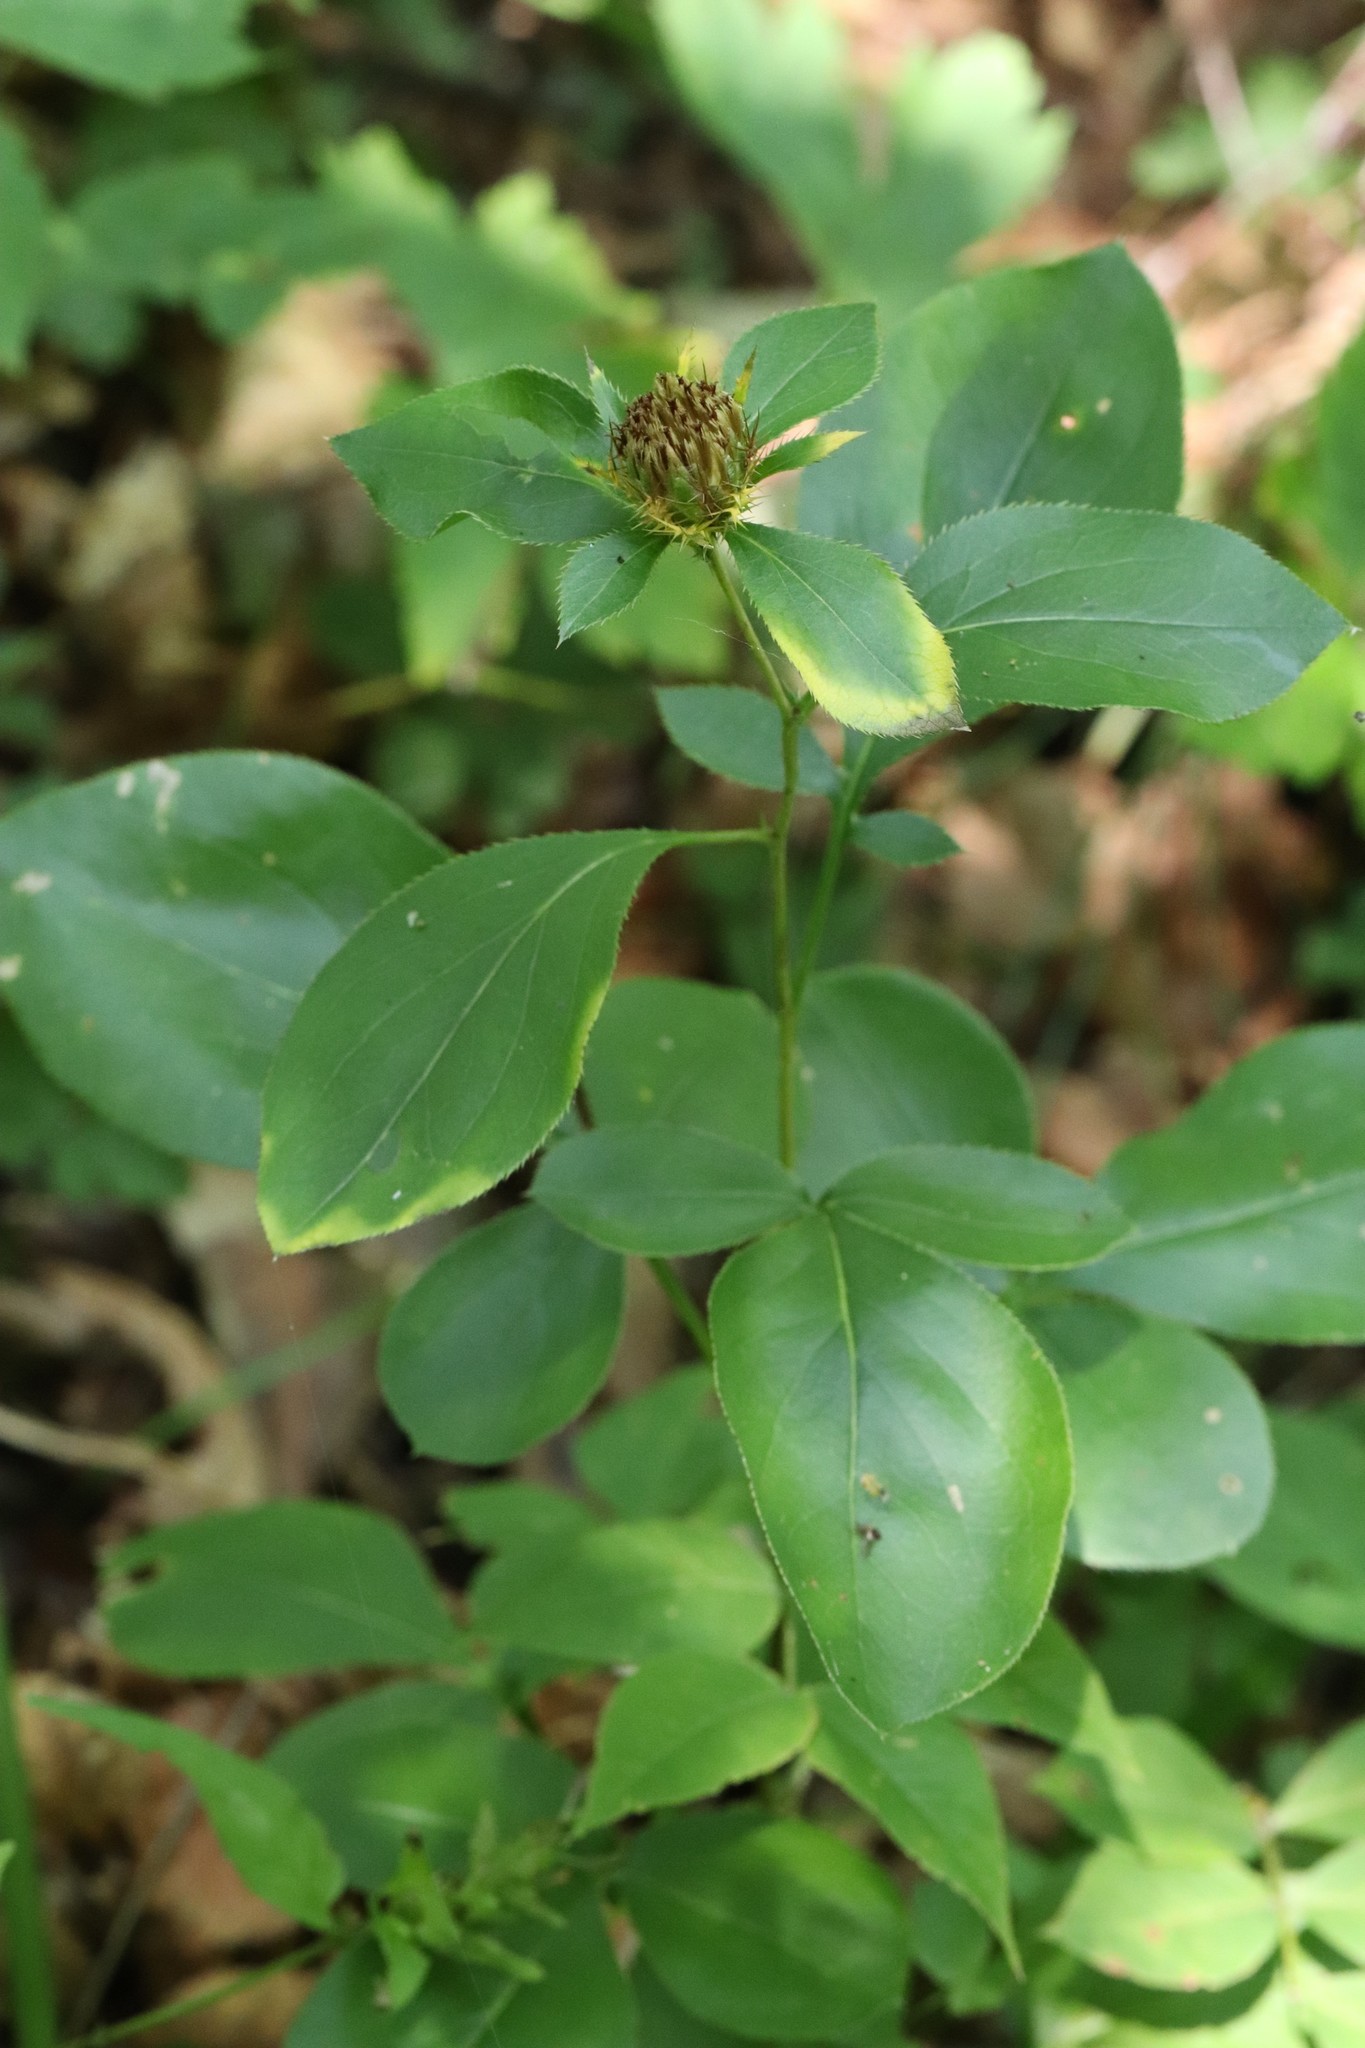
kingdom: Plantae
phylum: Tracheophyta
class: Magnoliopsida
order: Asterales
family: Asteraceae
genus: Atractylodes
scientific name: Atractylodes lancea
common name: Southern tsangshu
